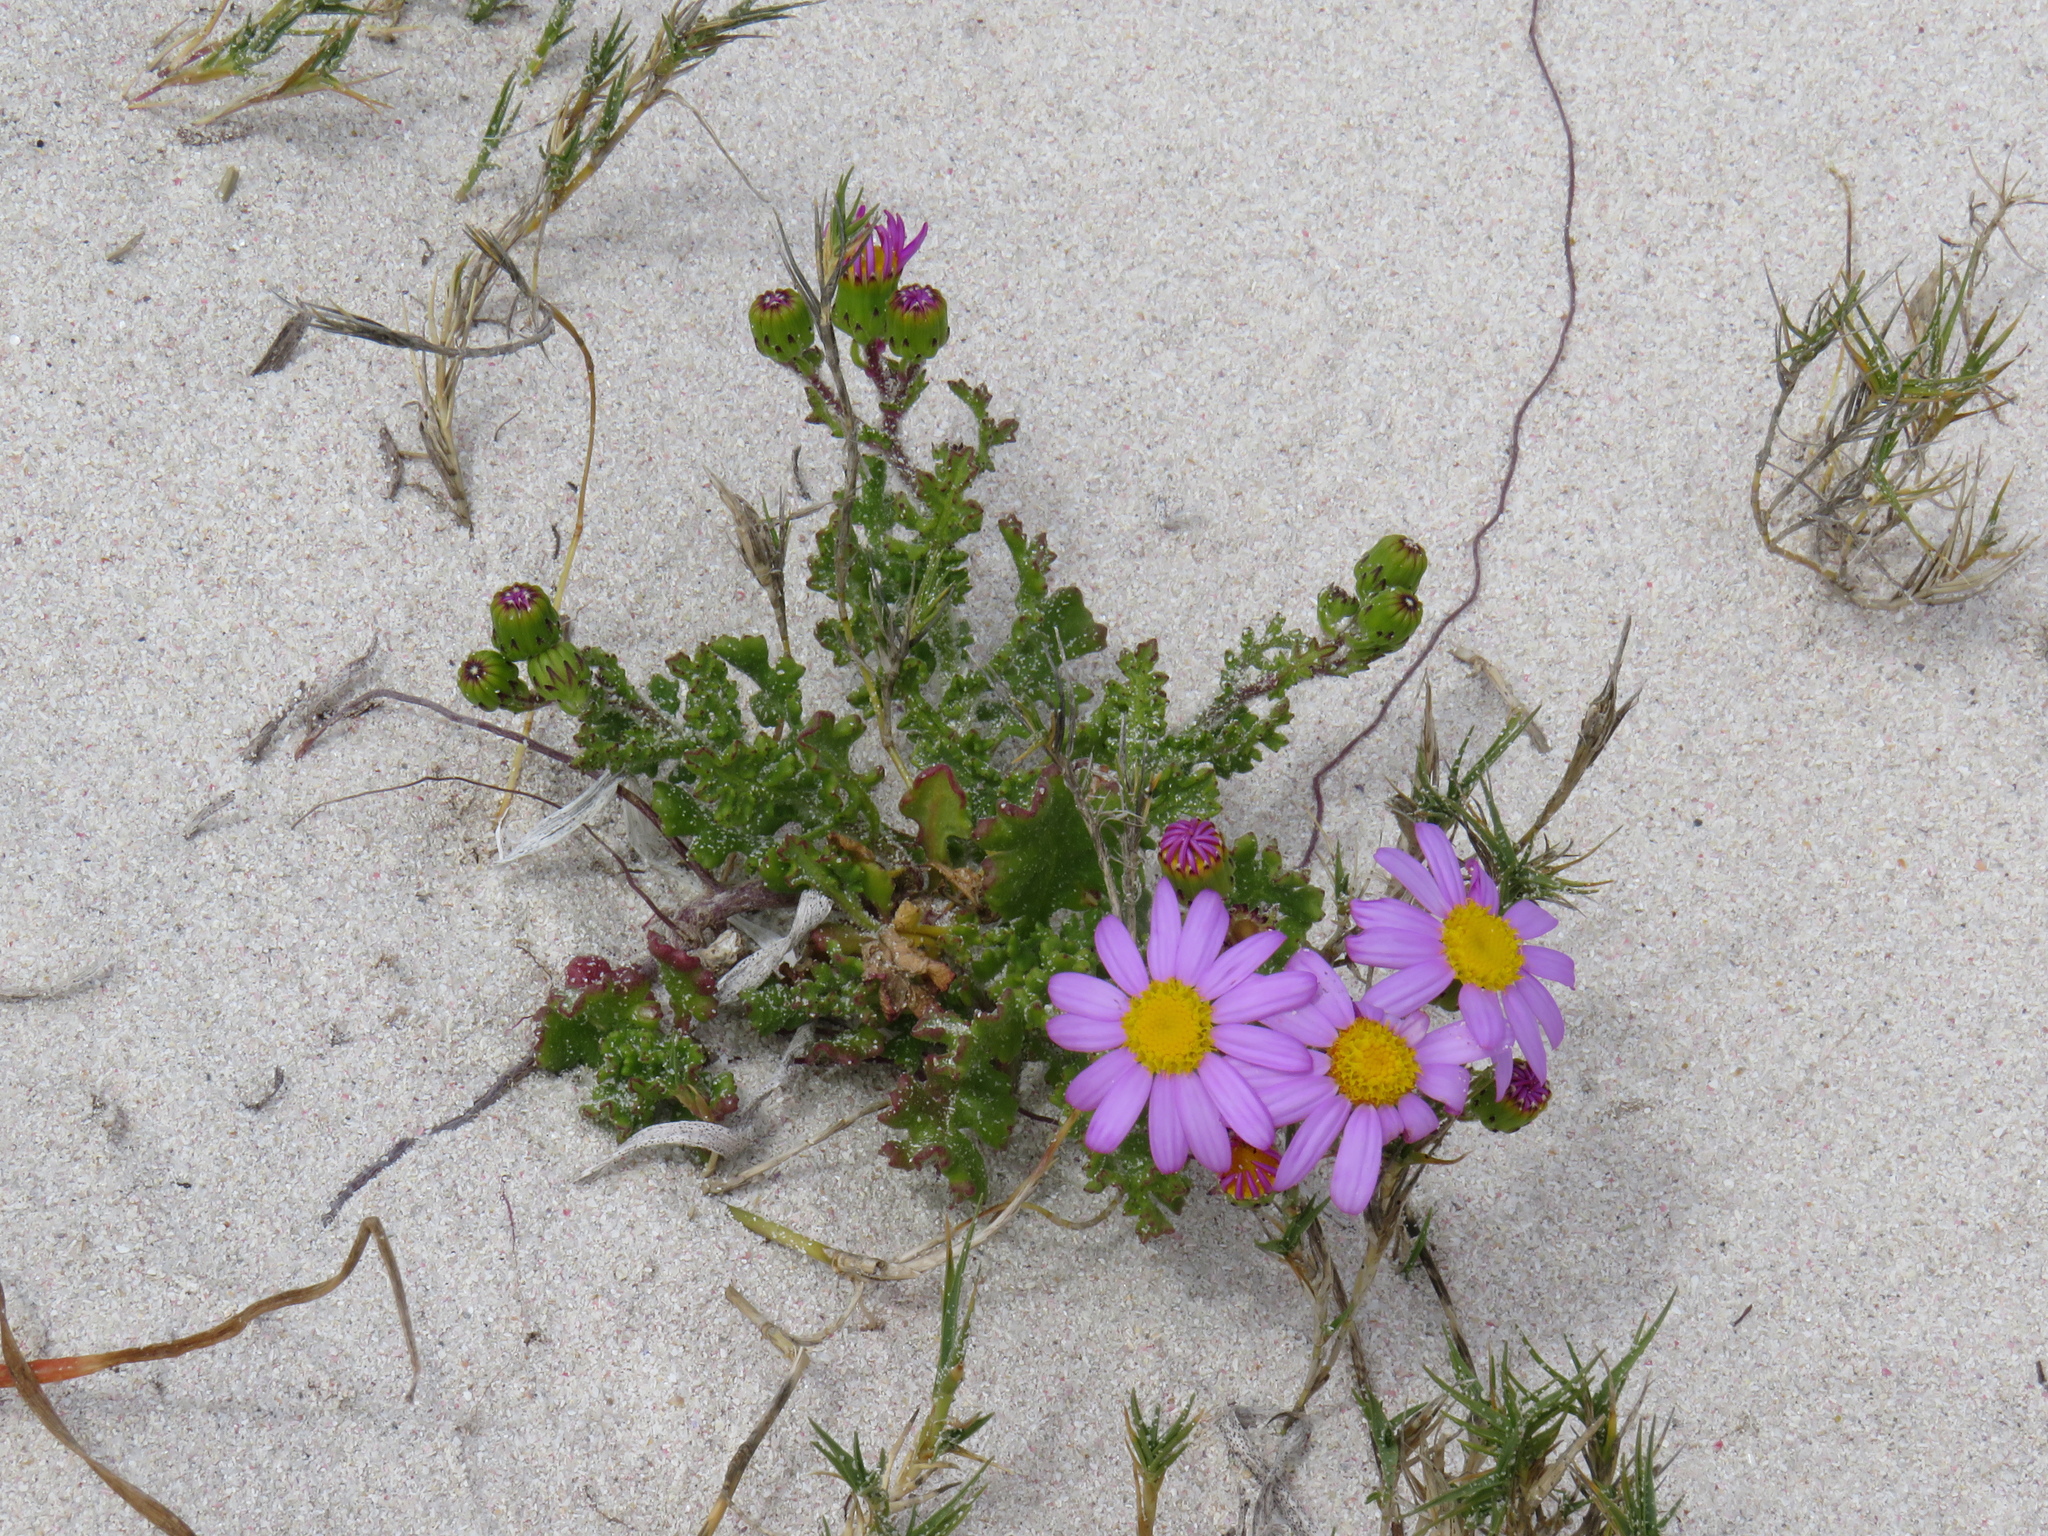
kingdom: Plantae
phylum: Tracheophyta
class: Magnoliopsida
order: Asterales
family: Asteraceae
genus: Senecio
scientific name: Senecio elegans
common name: Purple groundsel
